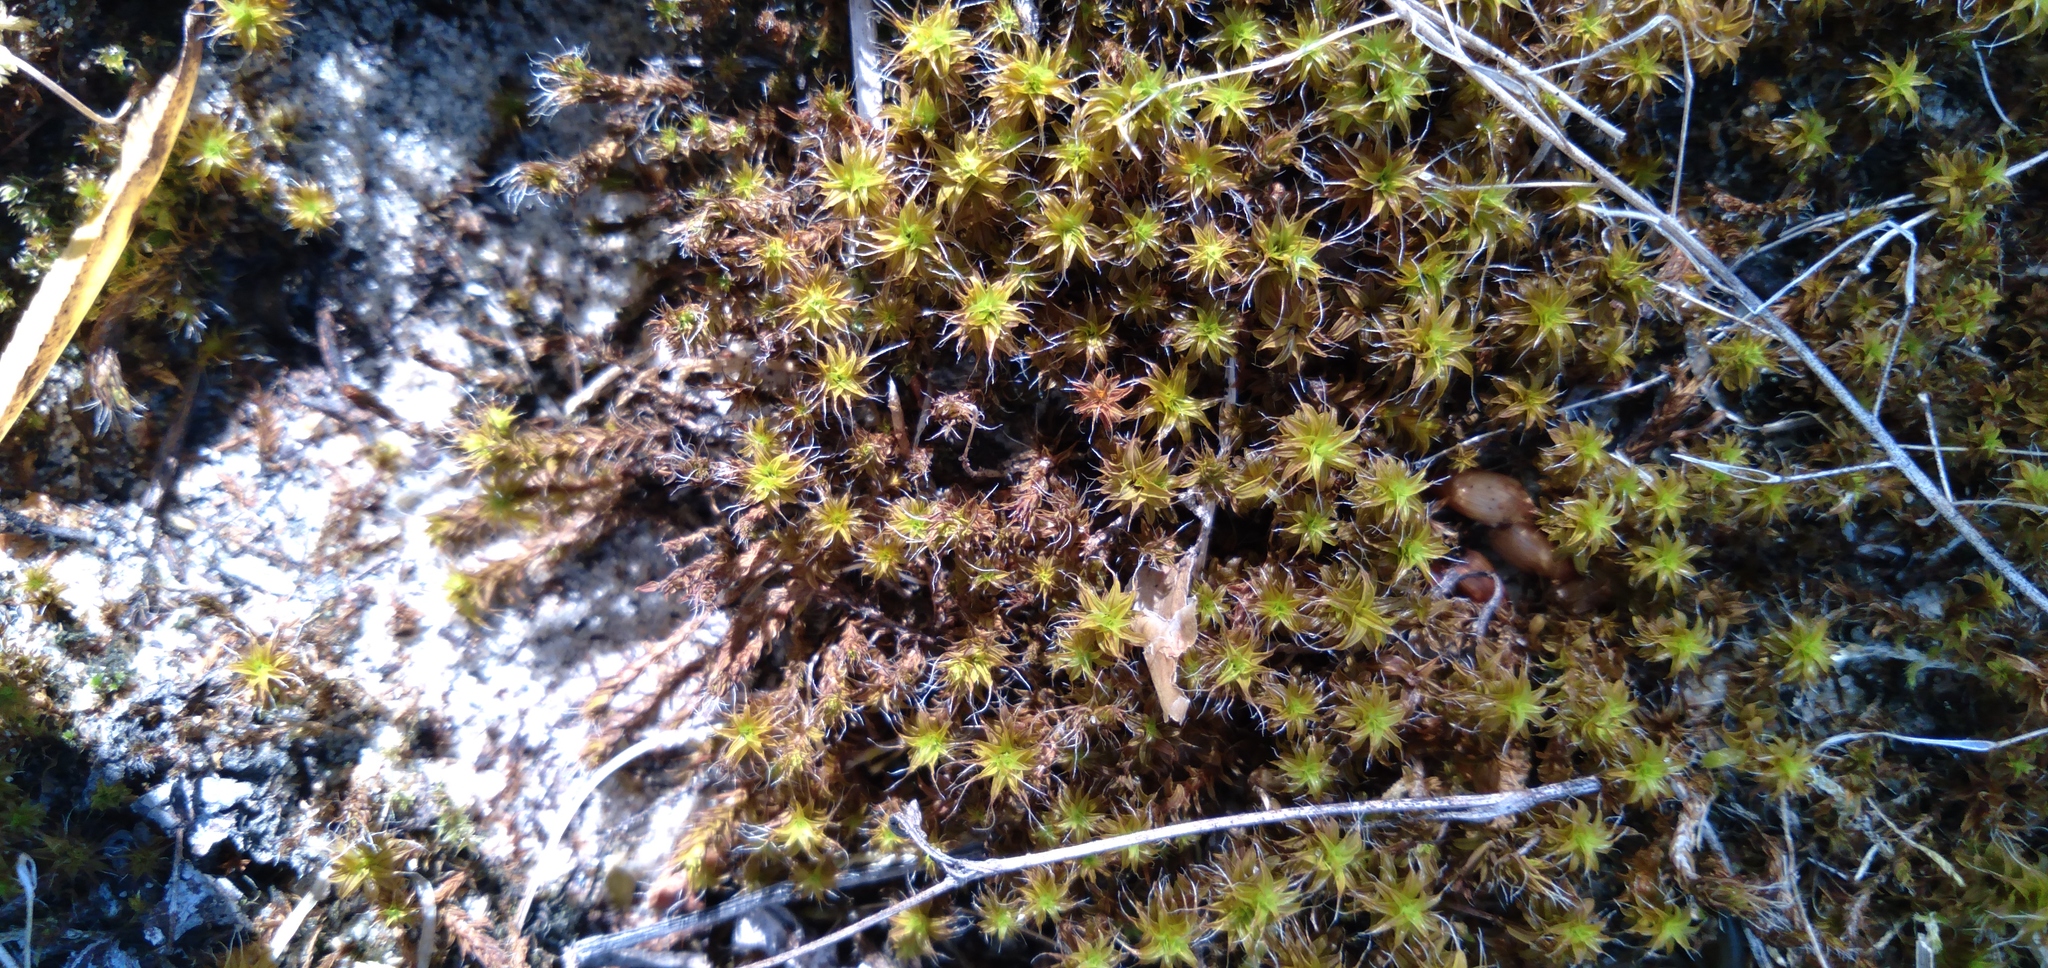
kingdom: Plantae
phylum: Bryophyta
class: Bryopsida
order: Pottiales
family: Pottiaceae
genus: Syntrichia
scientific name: Syntrichia ruralis
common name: Sidewalk screw moss
